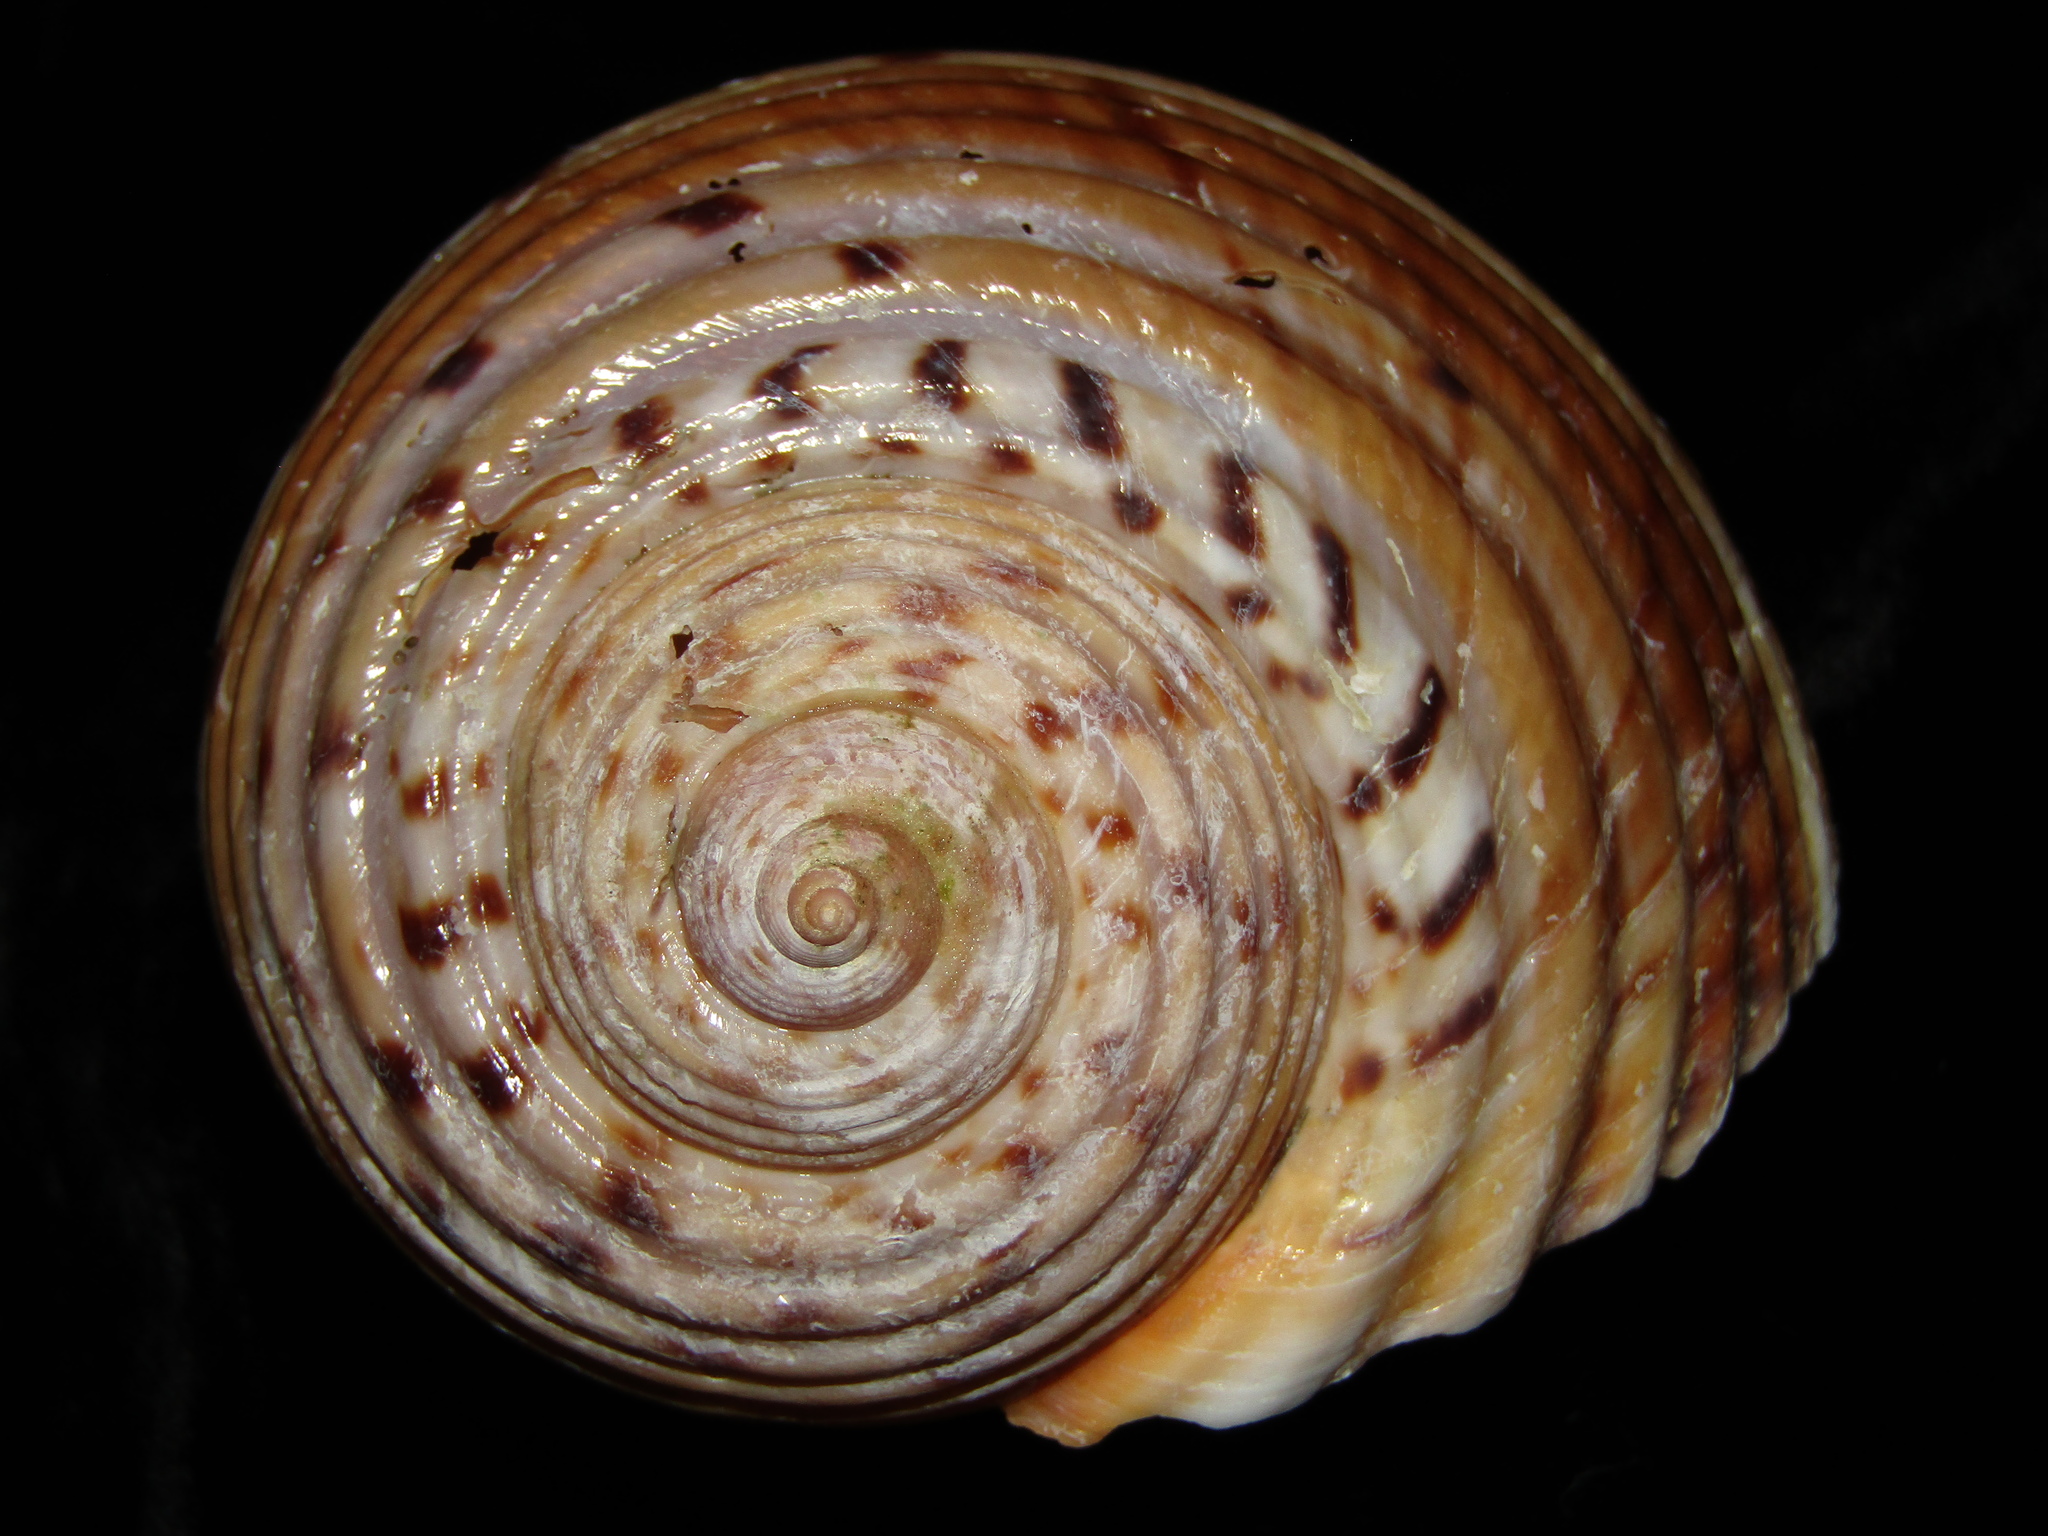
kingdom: Animalia
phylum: Mollusca
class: Gastropoda
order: Littorinimorpha
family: Tonnidae
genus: Tonna
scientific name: Tonna tankervillii
